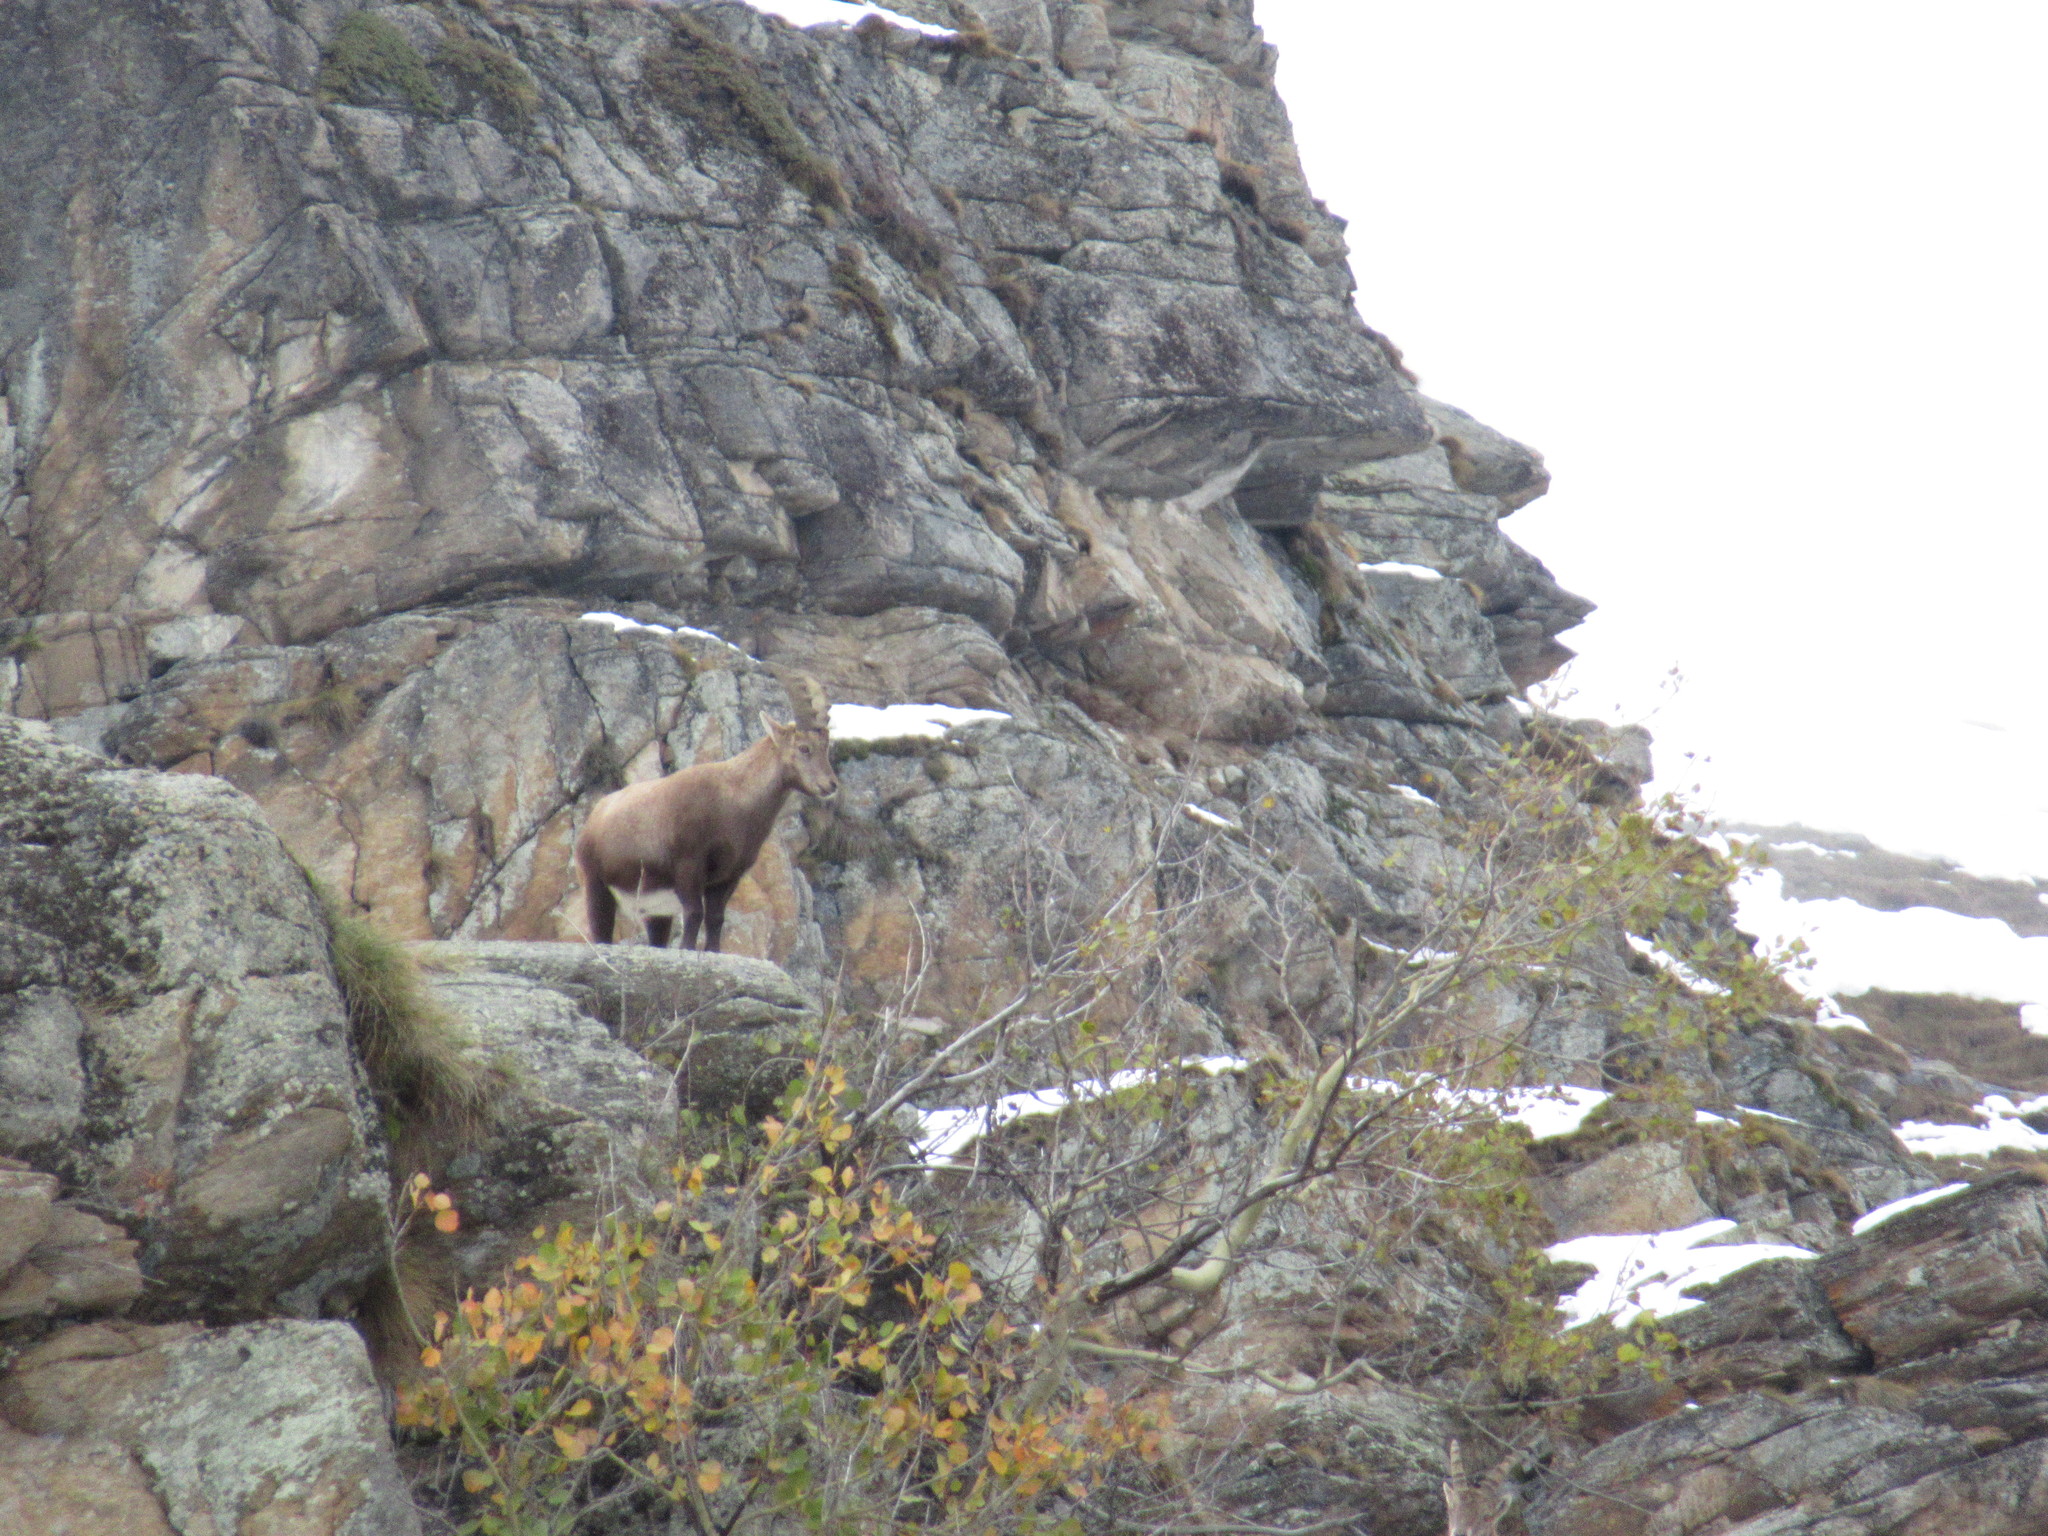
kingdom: Animalia
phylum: Chordata
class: Mammalia
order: Artiodactyla
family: Bovidae
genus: Capra
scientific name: Capra ibex
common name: Alpine ibex
